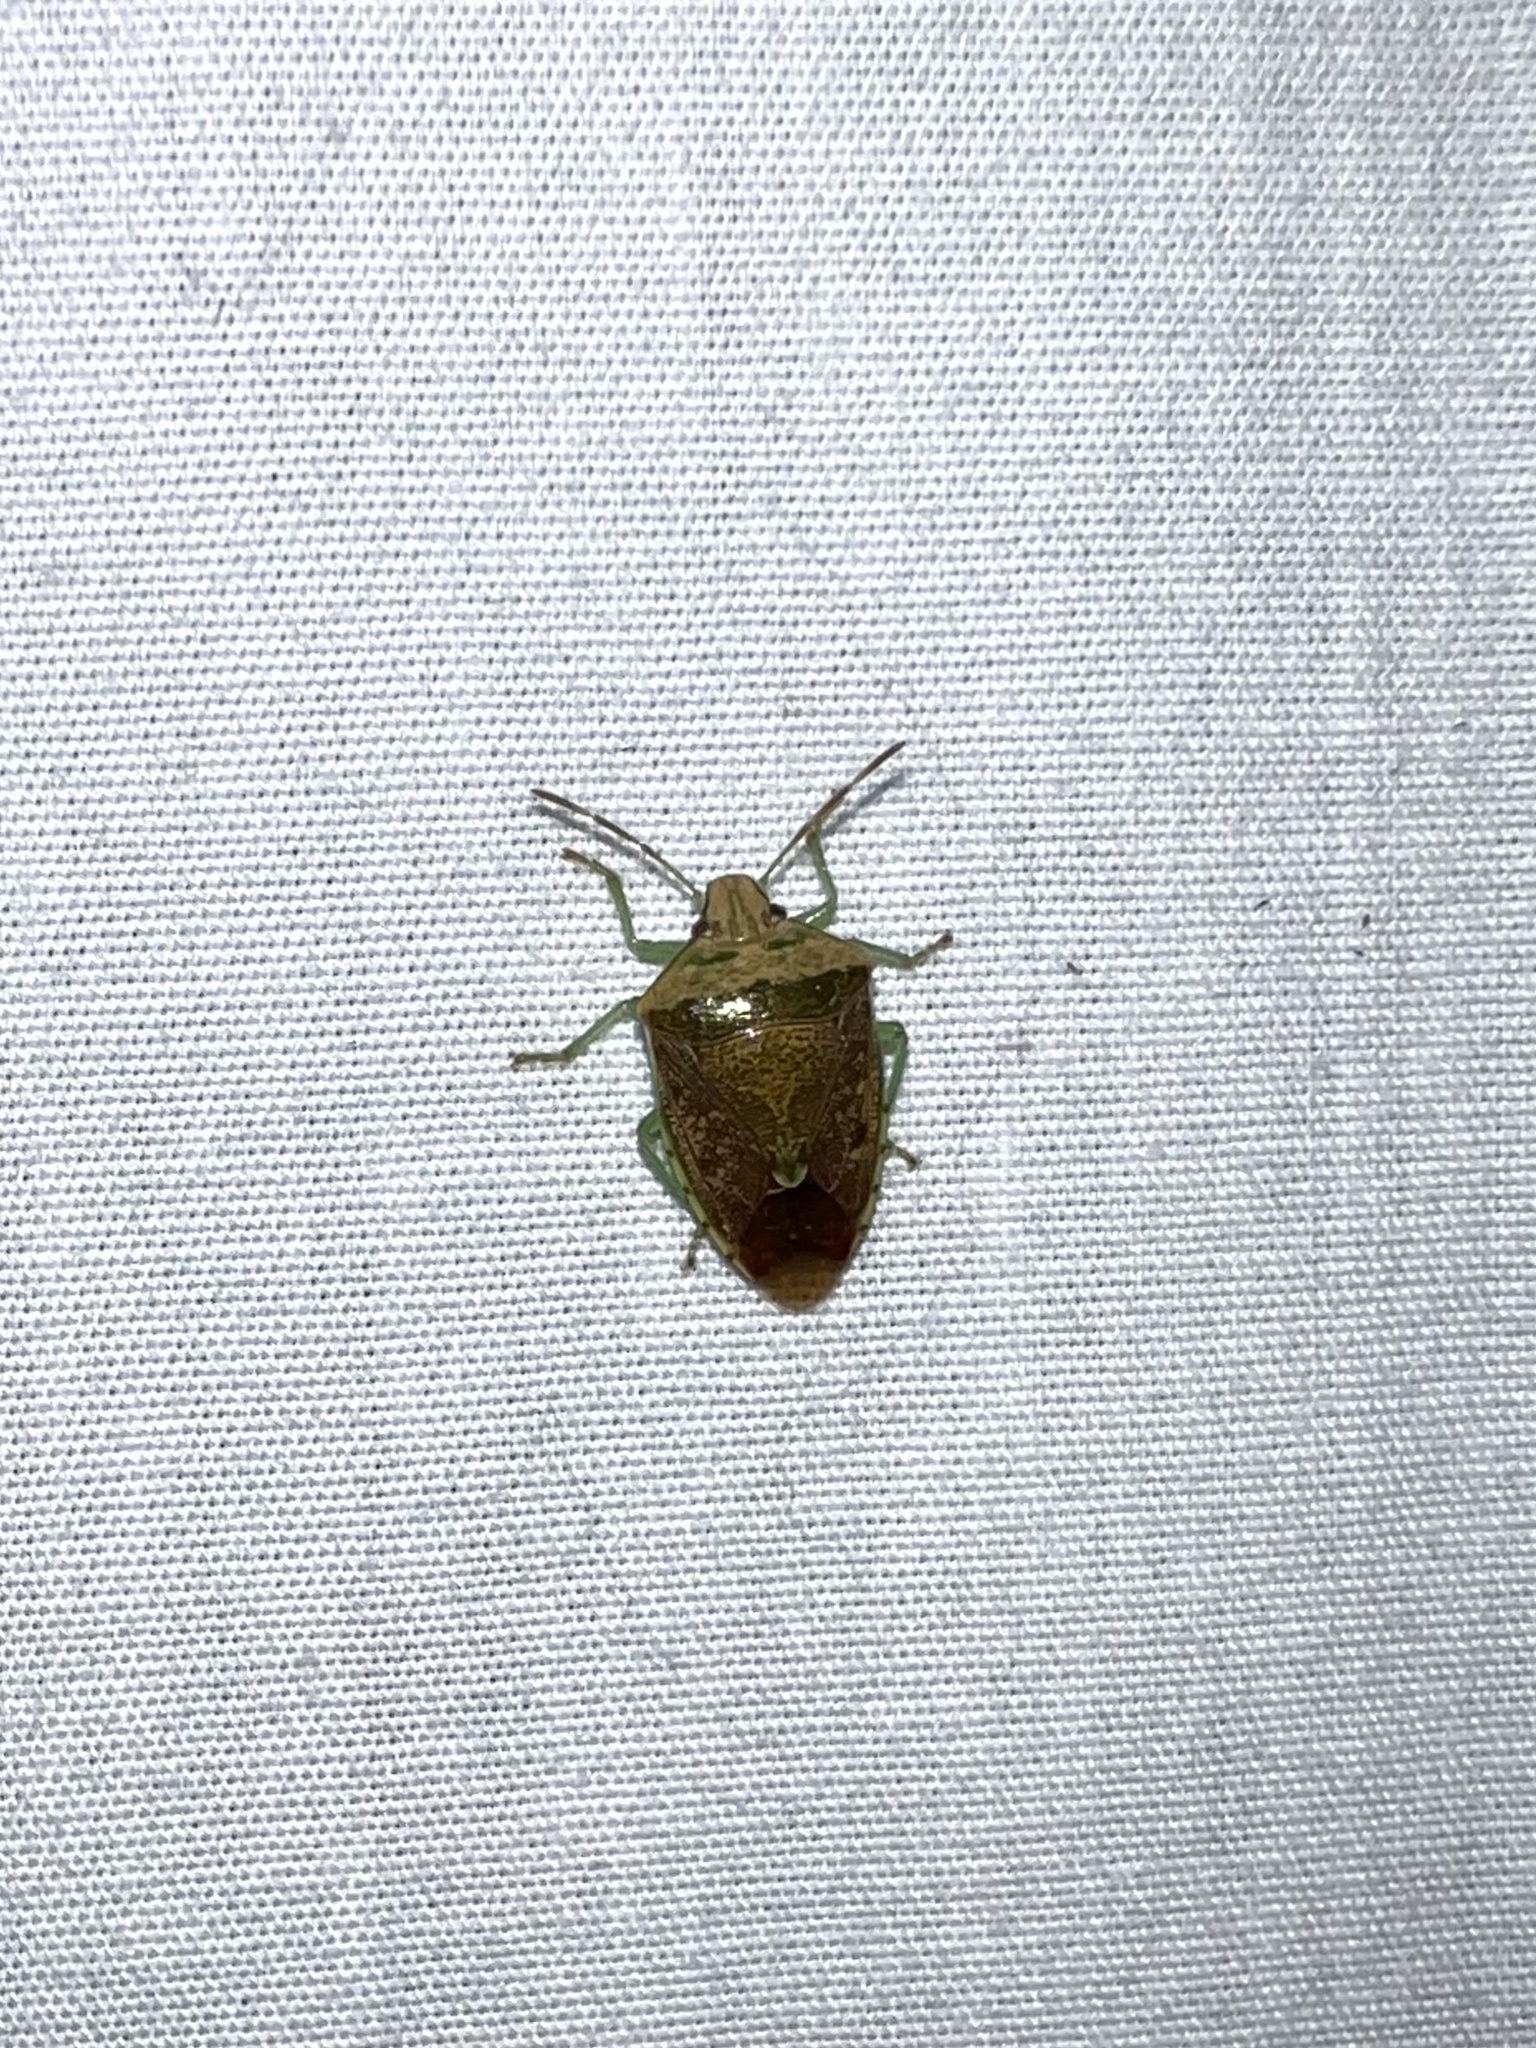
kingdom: Animalia
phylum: Arthropoda
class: Insecta
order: Hemiptera
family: Pentatomidae
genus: Banasa
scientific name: Banasa calva
